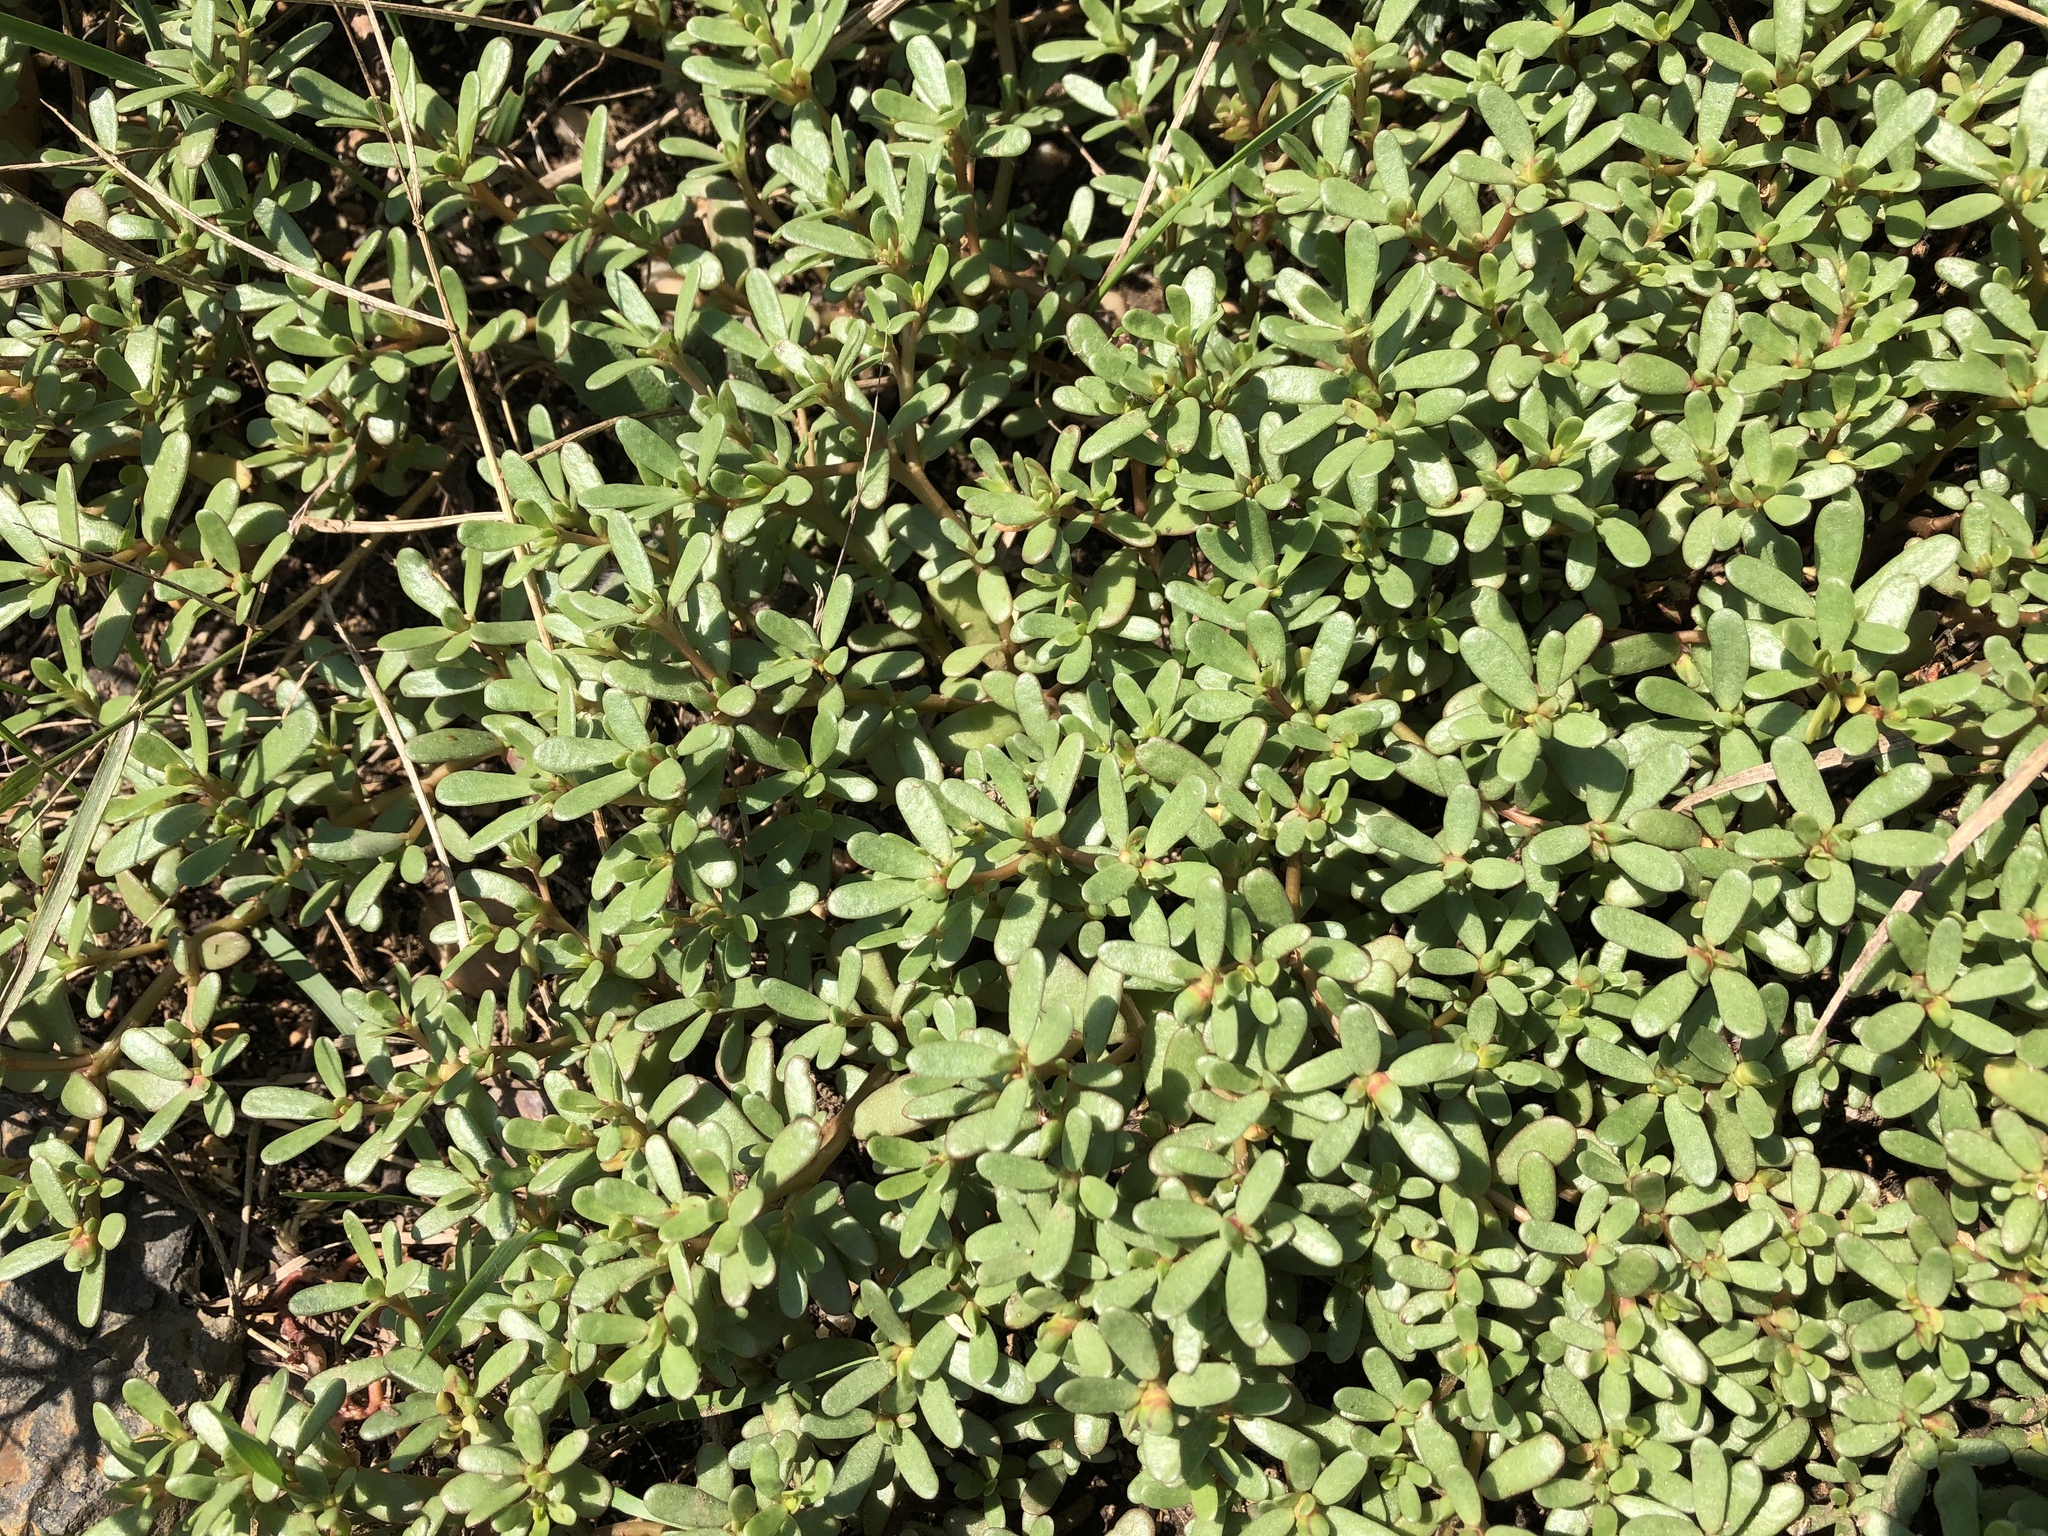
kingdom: Plantae
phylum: Tracheophyta
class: Magnoliopsida
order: Caryophyllales
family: Portulacaceae
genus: Portulaca
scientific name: Portulaca oleracea
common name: Common purslane
